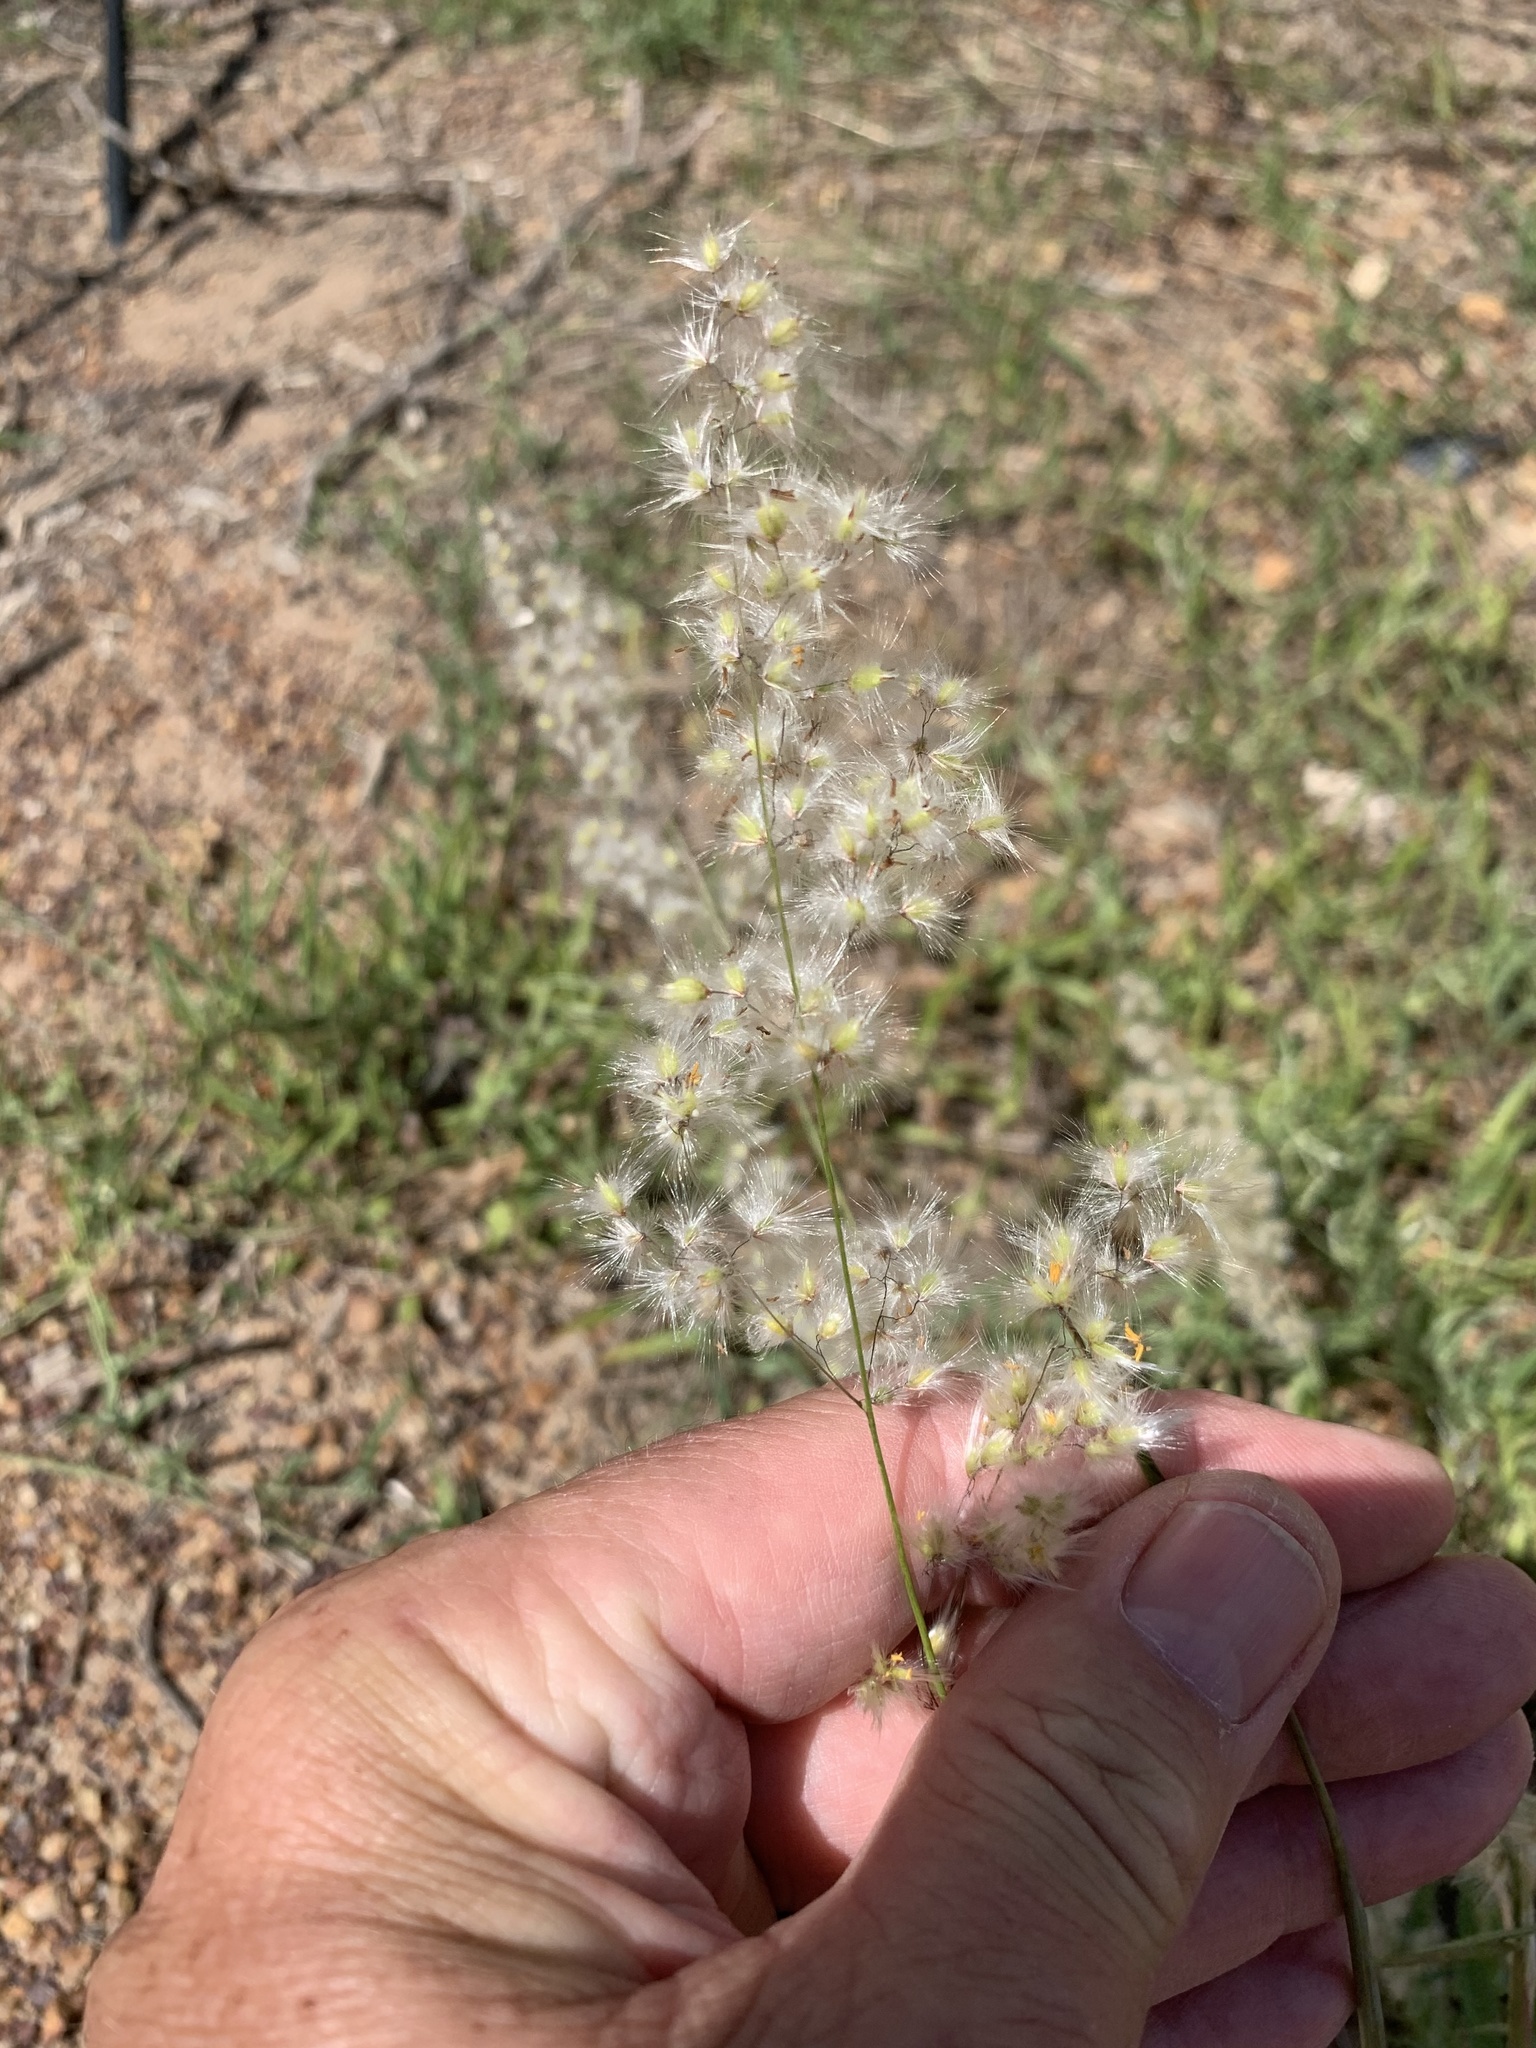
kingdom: Plantae
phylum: Tracheophyta
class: Liliopsida
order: Poales
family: Poaceae
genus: Melinis
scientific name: Melinis repens
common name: Rose natal grass
